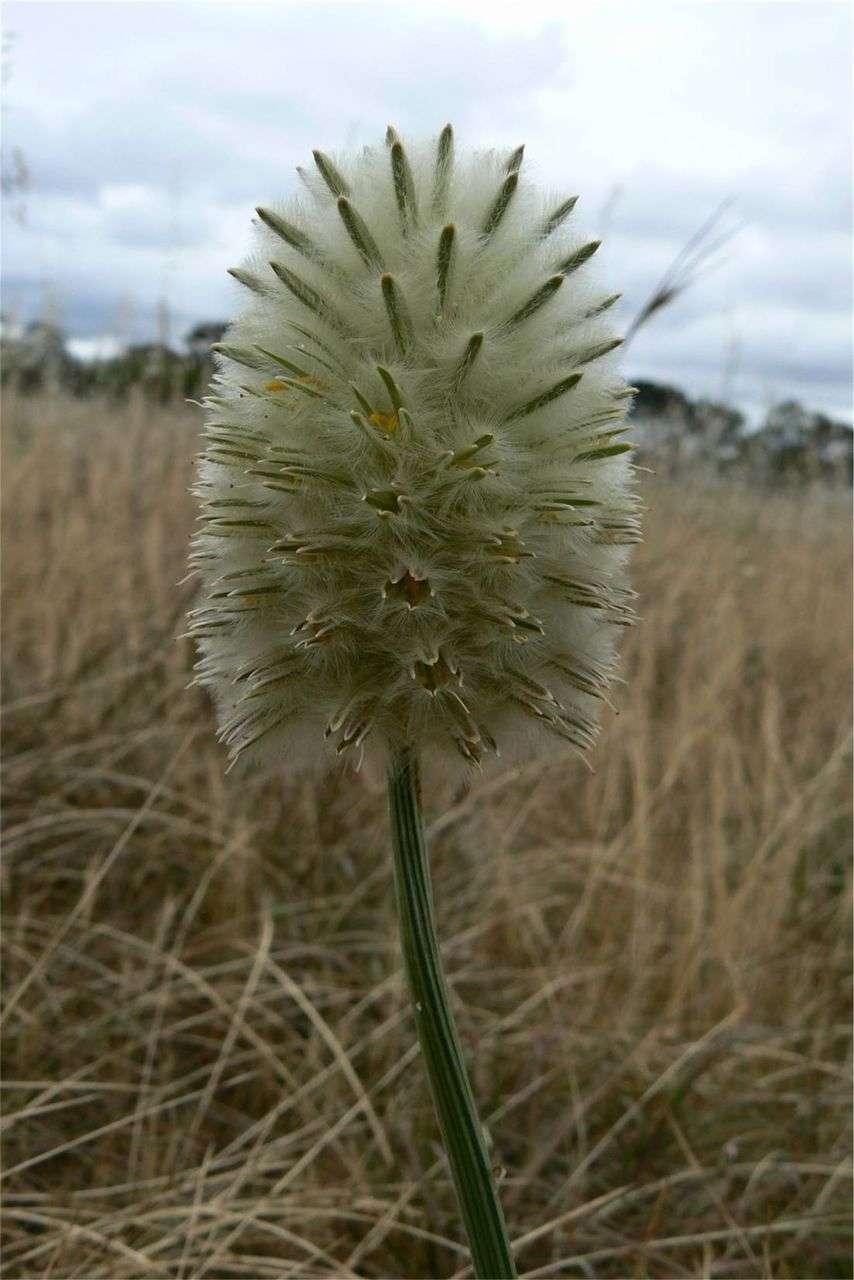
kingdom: Plantae
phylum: Tracheophyta
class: Magnoliopsida
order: Caryophyllales
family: Amaranthaceae
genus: Ptilotus
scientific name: Ptilotus macrocephalus
